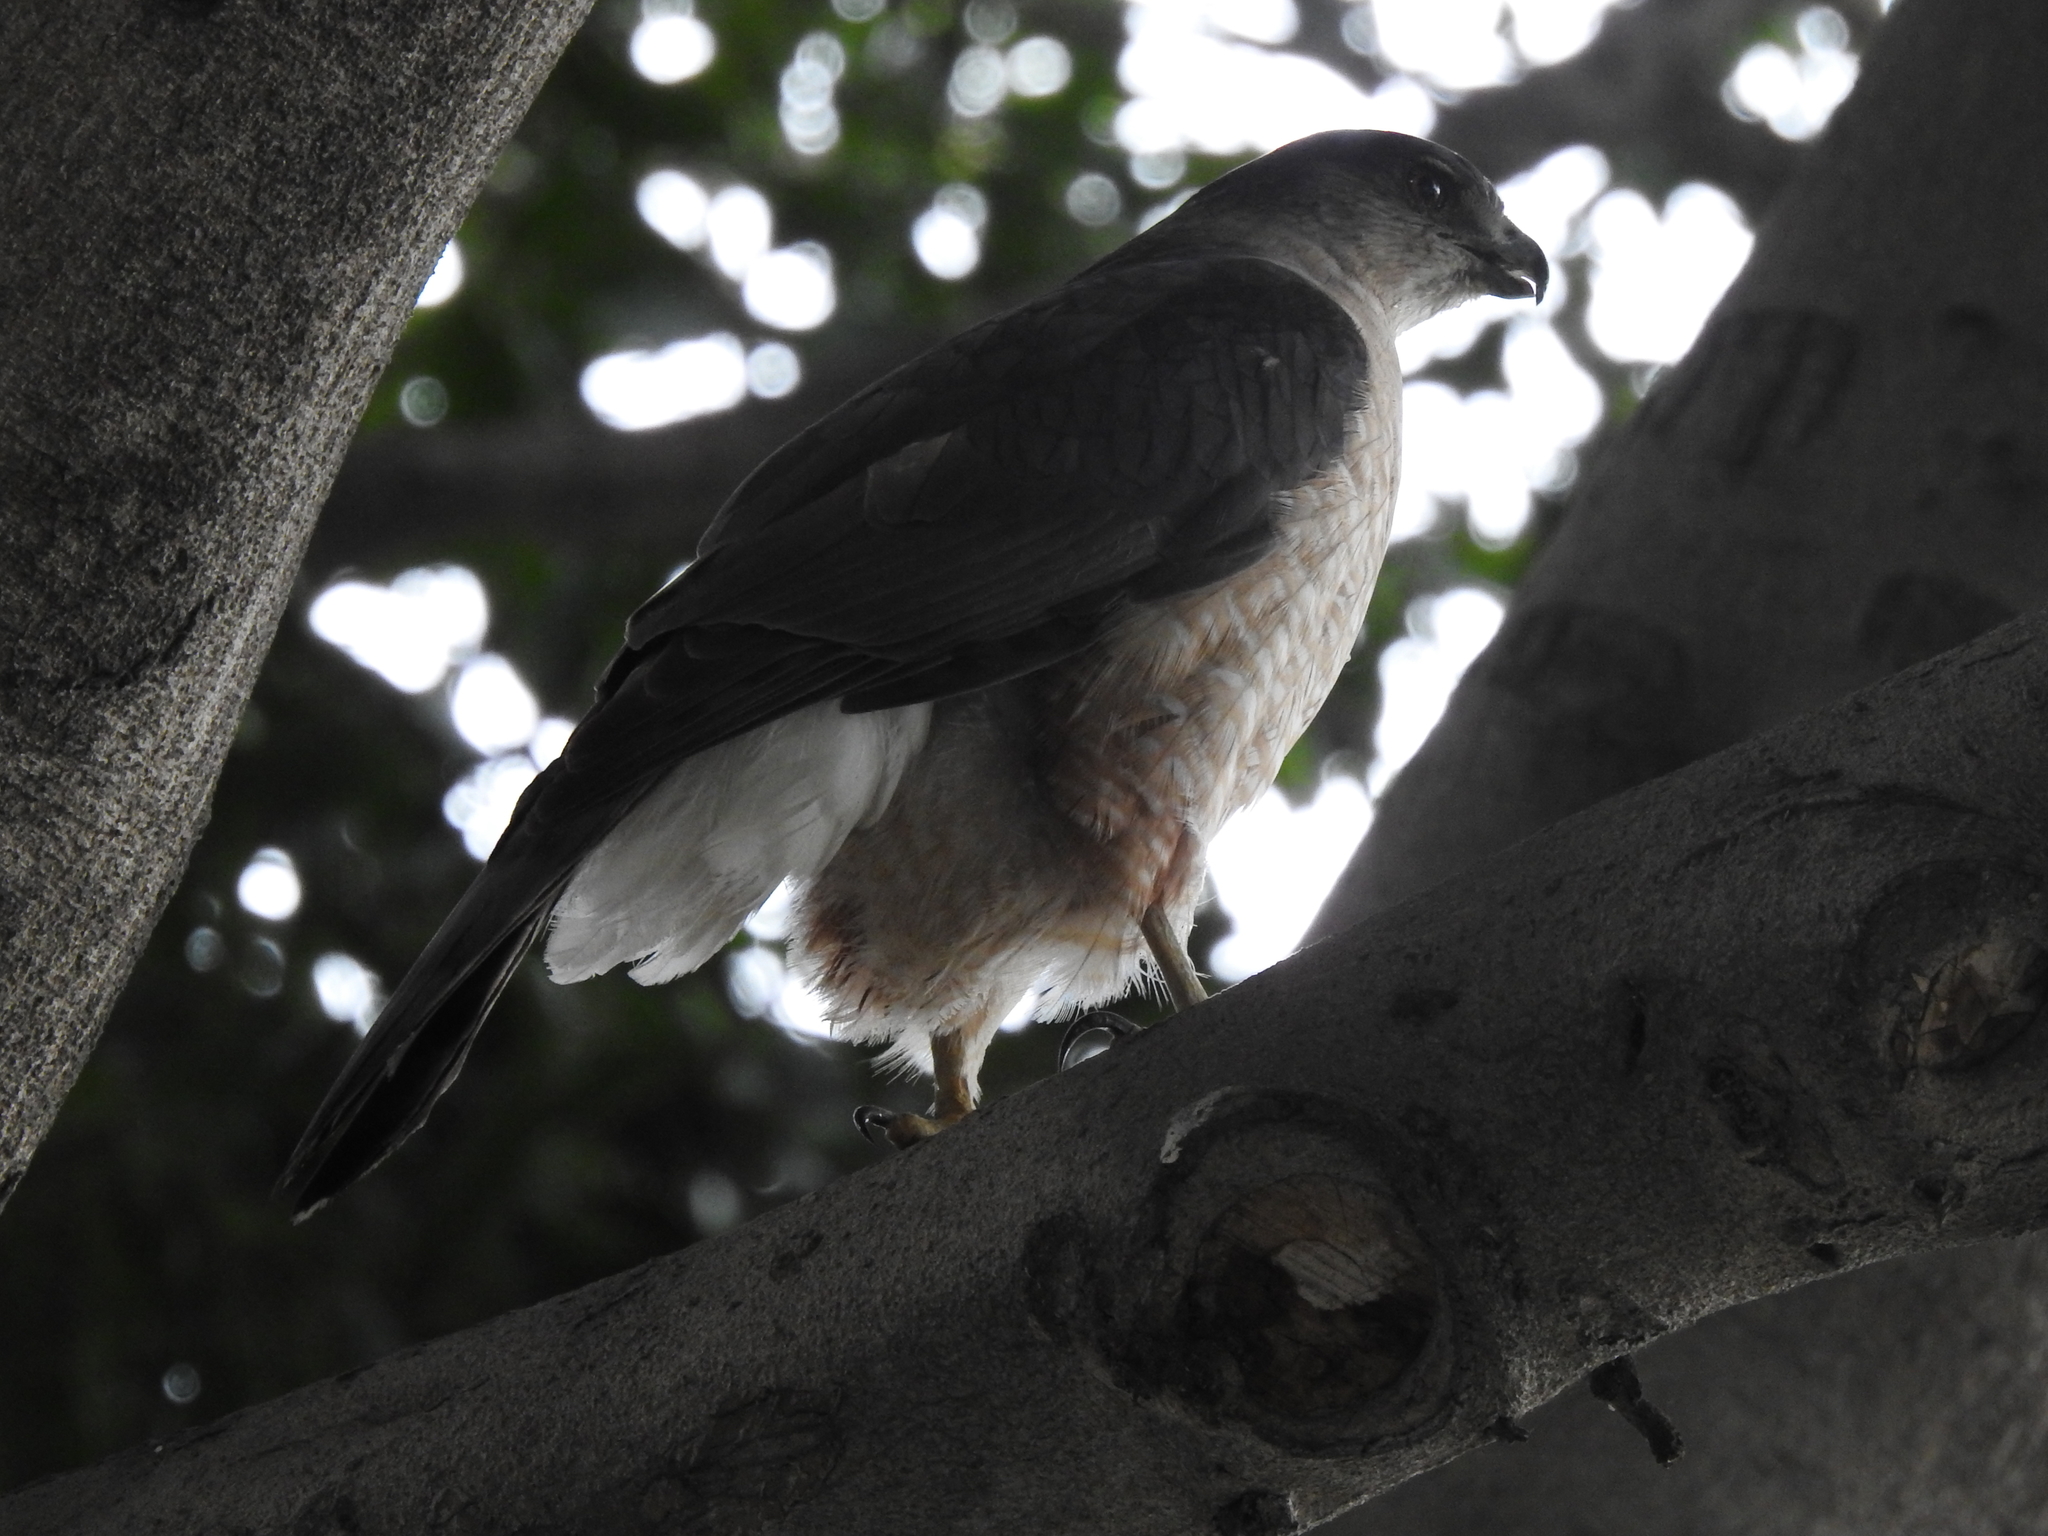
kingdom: Animalia
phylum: Chordata
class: Aves
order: Accipitriformes
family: Accipitridae
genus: Accipiter
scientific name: Accipiter cooperii
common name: Cooper's hawk
